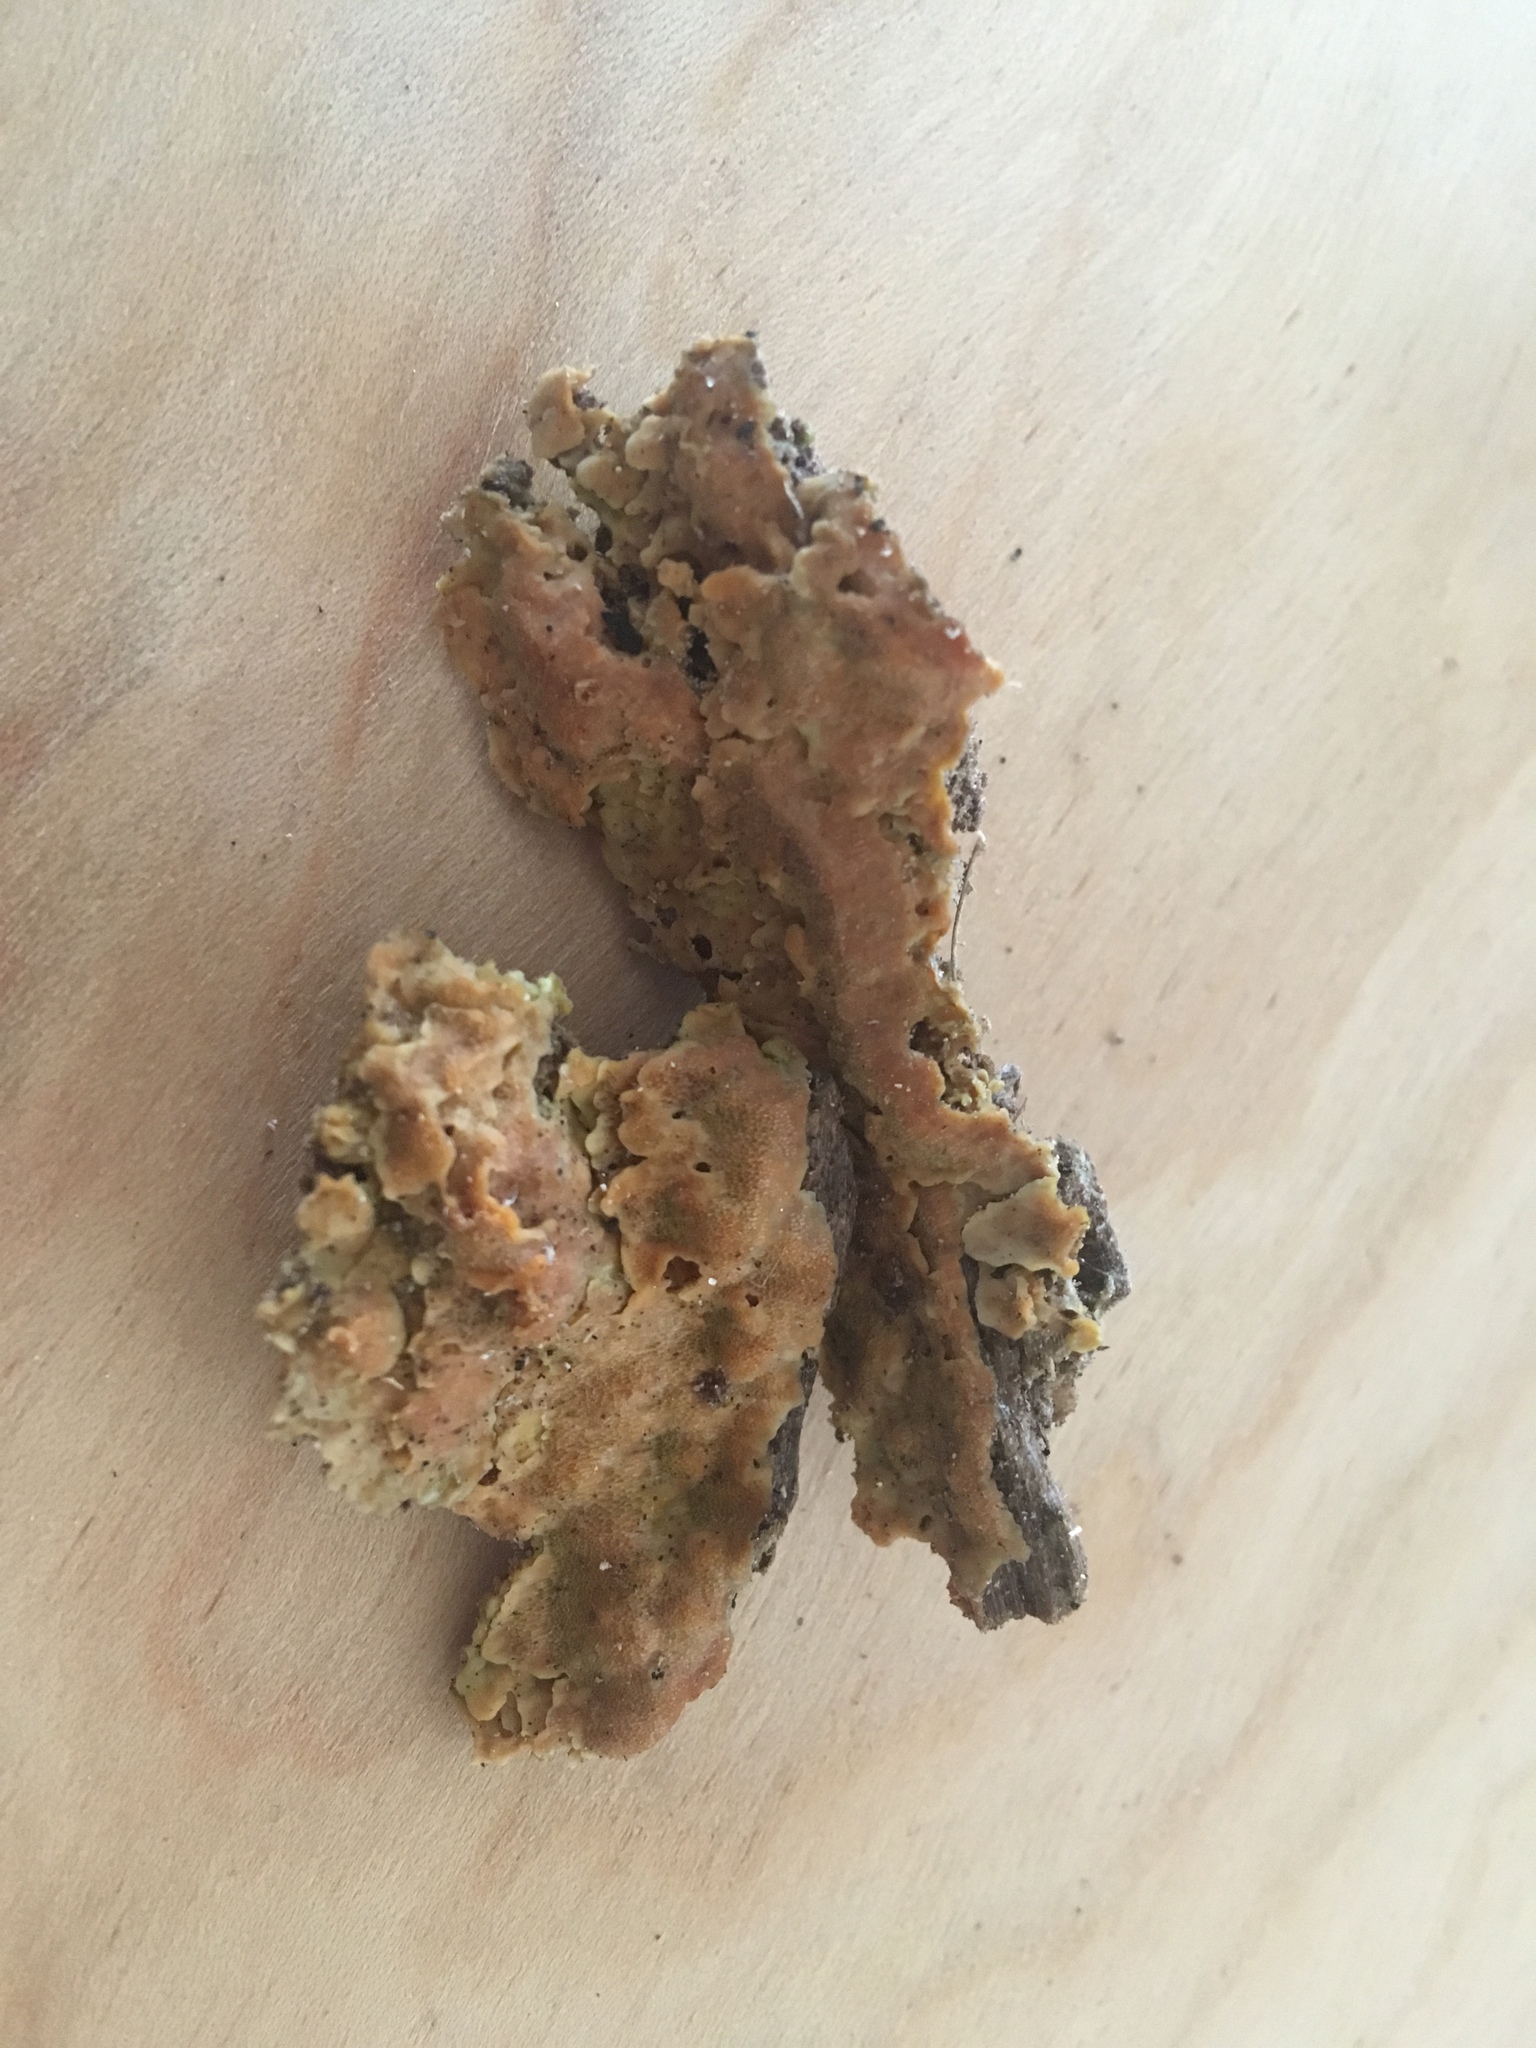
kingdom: Fungi
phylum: Basidiomycota
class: Agaricomycetes
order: Polyporales
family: Meripilaceae
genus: Rigidoporus
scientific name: Rigidoporus crocatus
